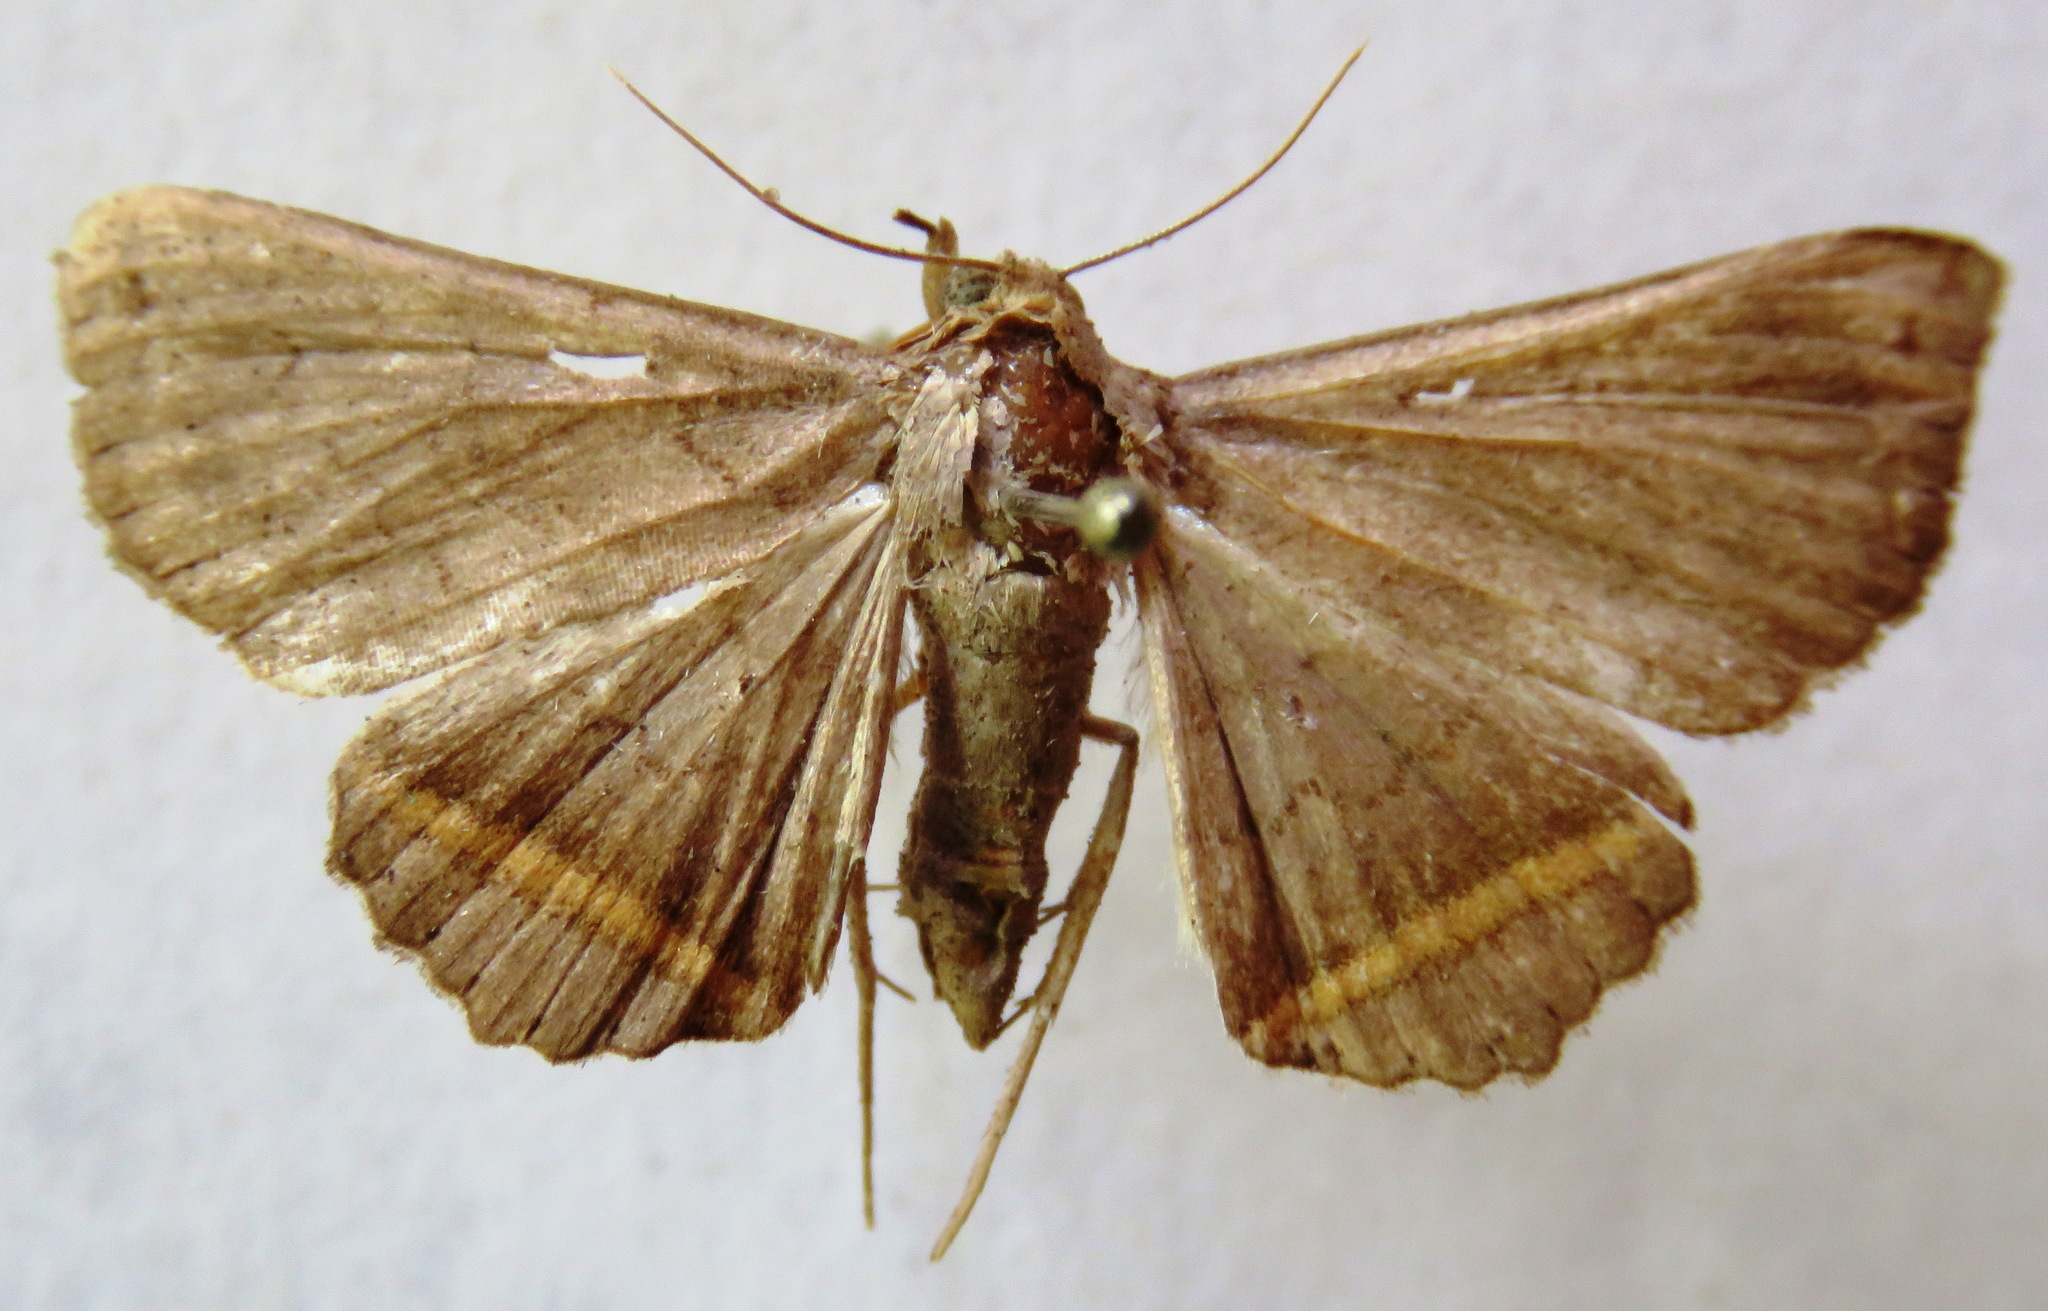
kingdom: Animalia
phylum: Arthropoda
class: Insecta
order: Lepidoptera
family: Erebidae
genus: Lesmone
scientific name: Lesmone formularis
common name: Lesmone moth
